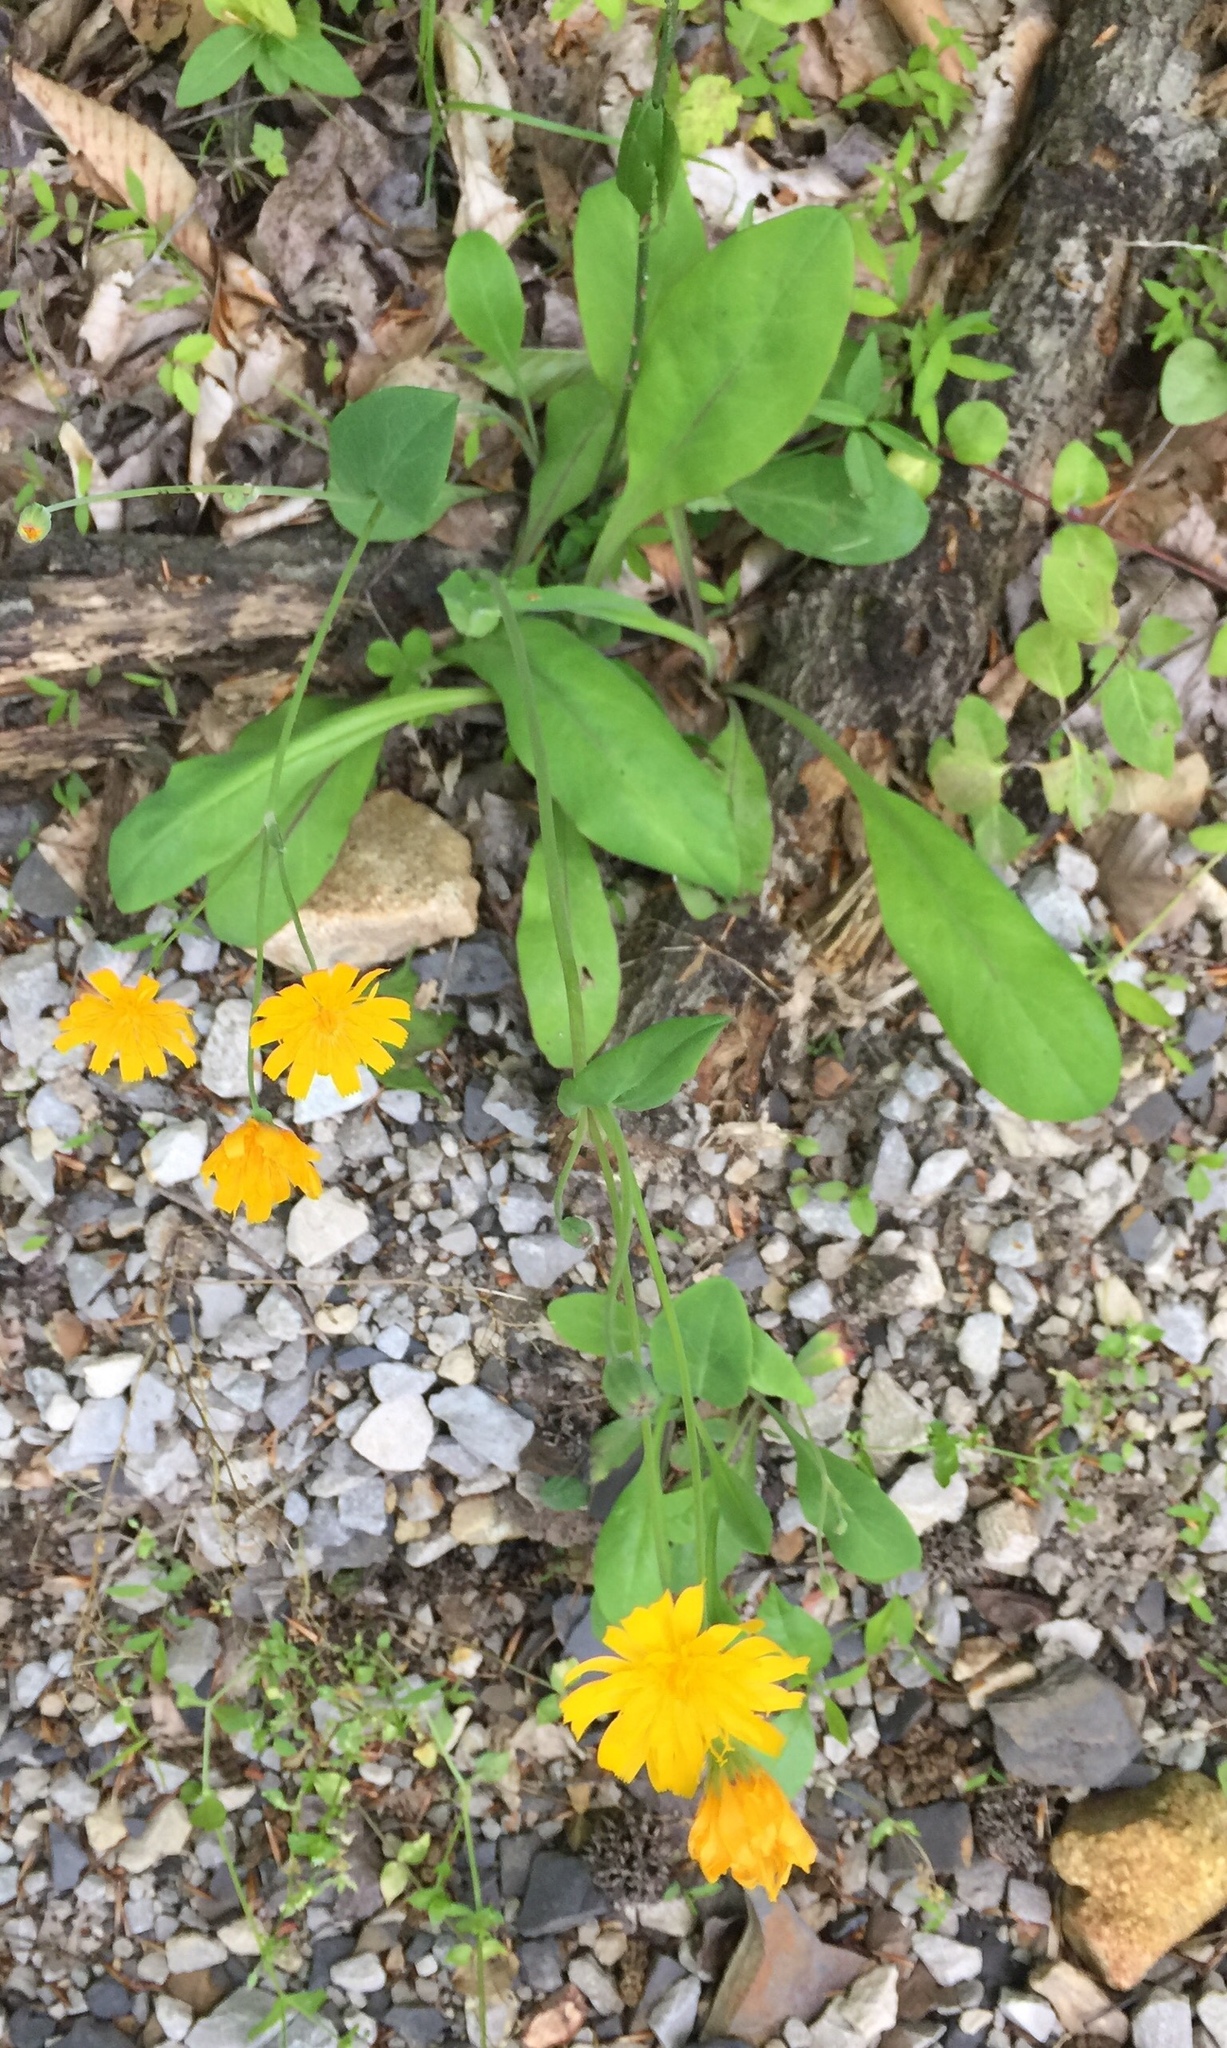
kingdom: Plantae
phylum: Tracheophyta
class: Magnoliopsida
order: Asterales
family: Asteraceae
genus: Krigia
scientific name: Krigia biflora
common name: Orange dwarf-dandelion
